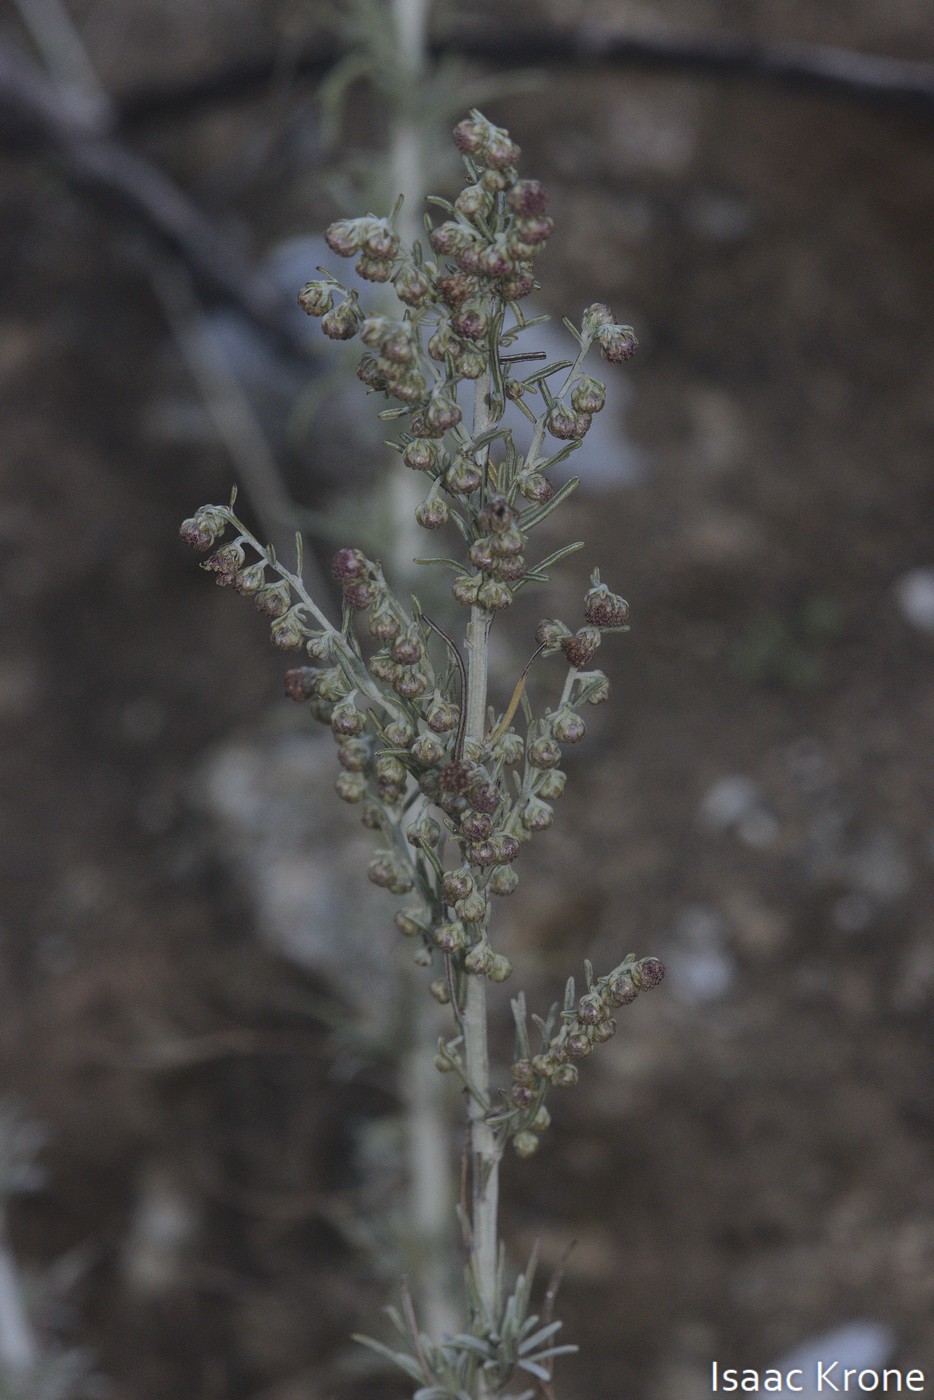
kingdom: Plantae
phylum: Tracheophyta
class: Magnoliopsida
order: Asterales
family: Asteraceae
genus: Artemisia
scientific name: Artemisia californica
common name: California sagebrush
